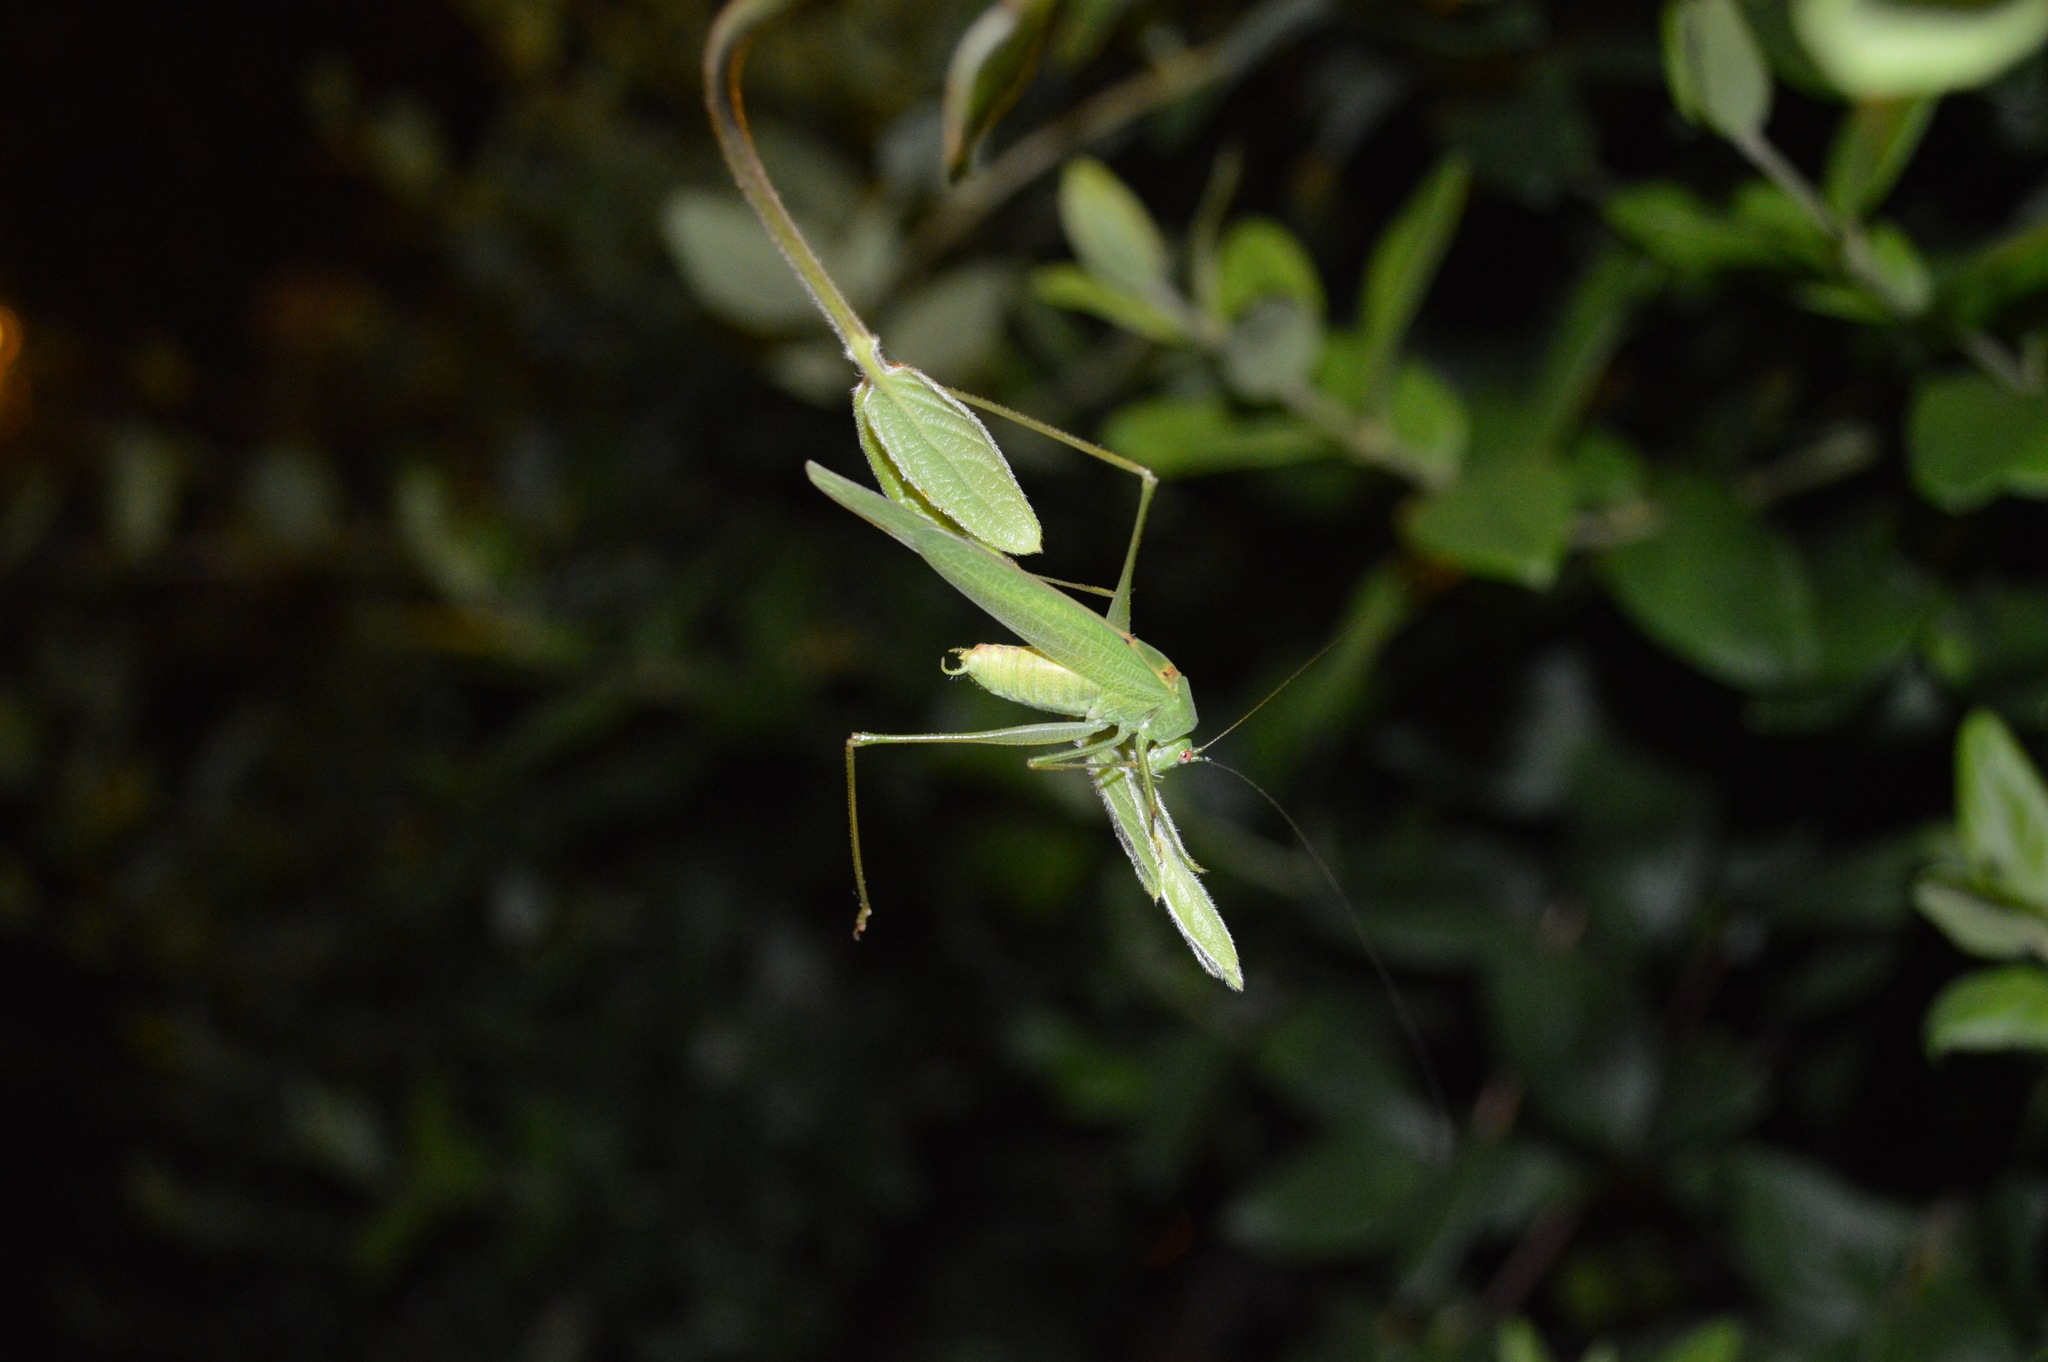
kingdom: Animalia
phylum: Arthropoda
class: Insecta
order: Orthoptera
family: Tettigoniidae
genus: Phaneroptera
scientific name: Phaneroptera nana
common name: Southern sickle bush-cricket
